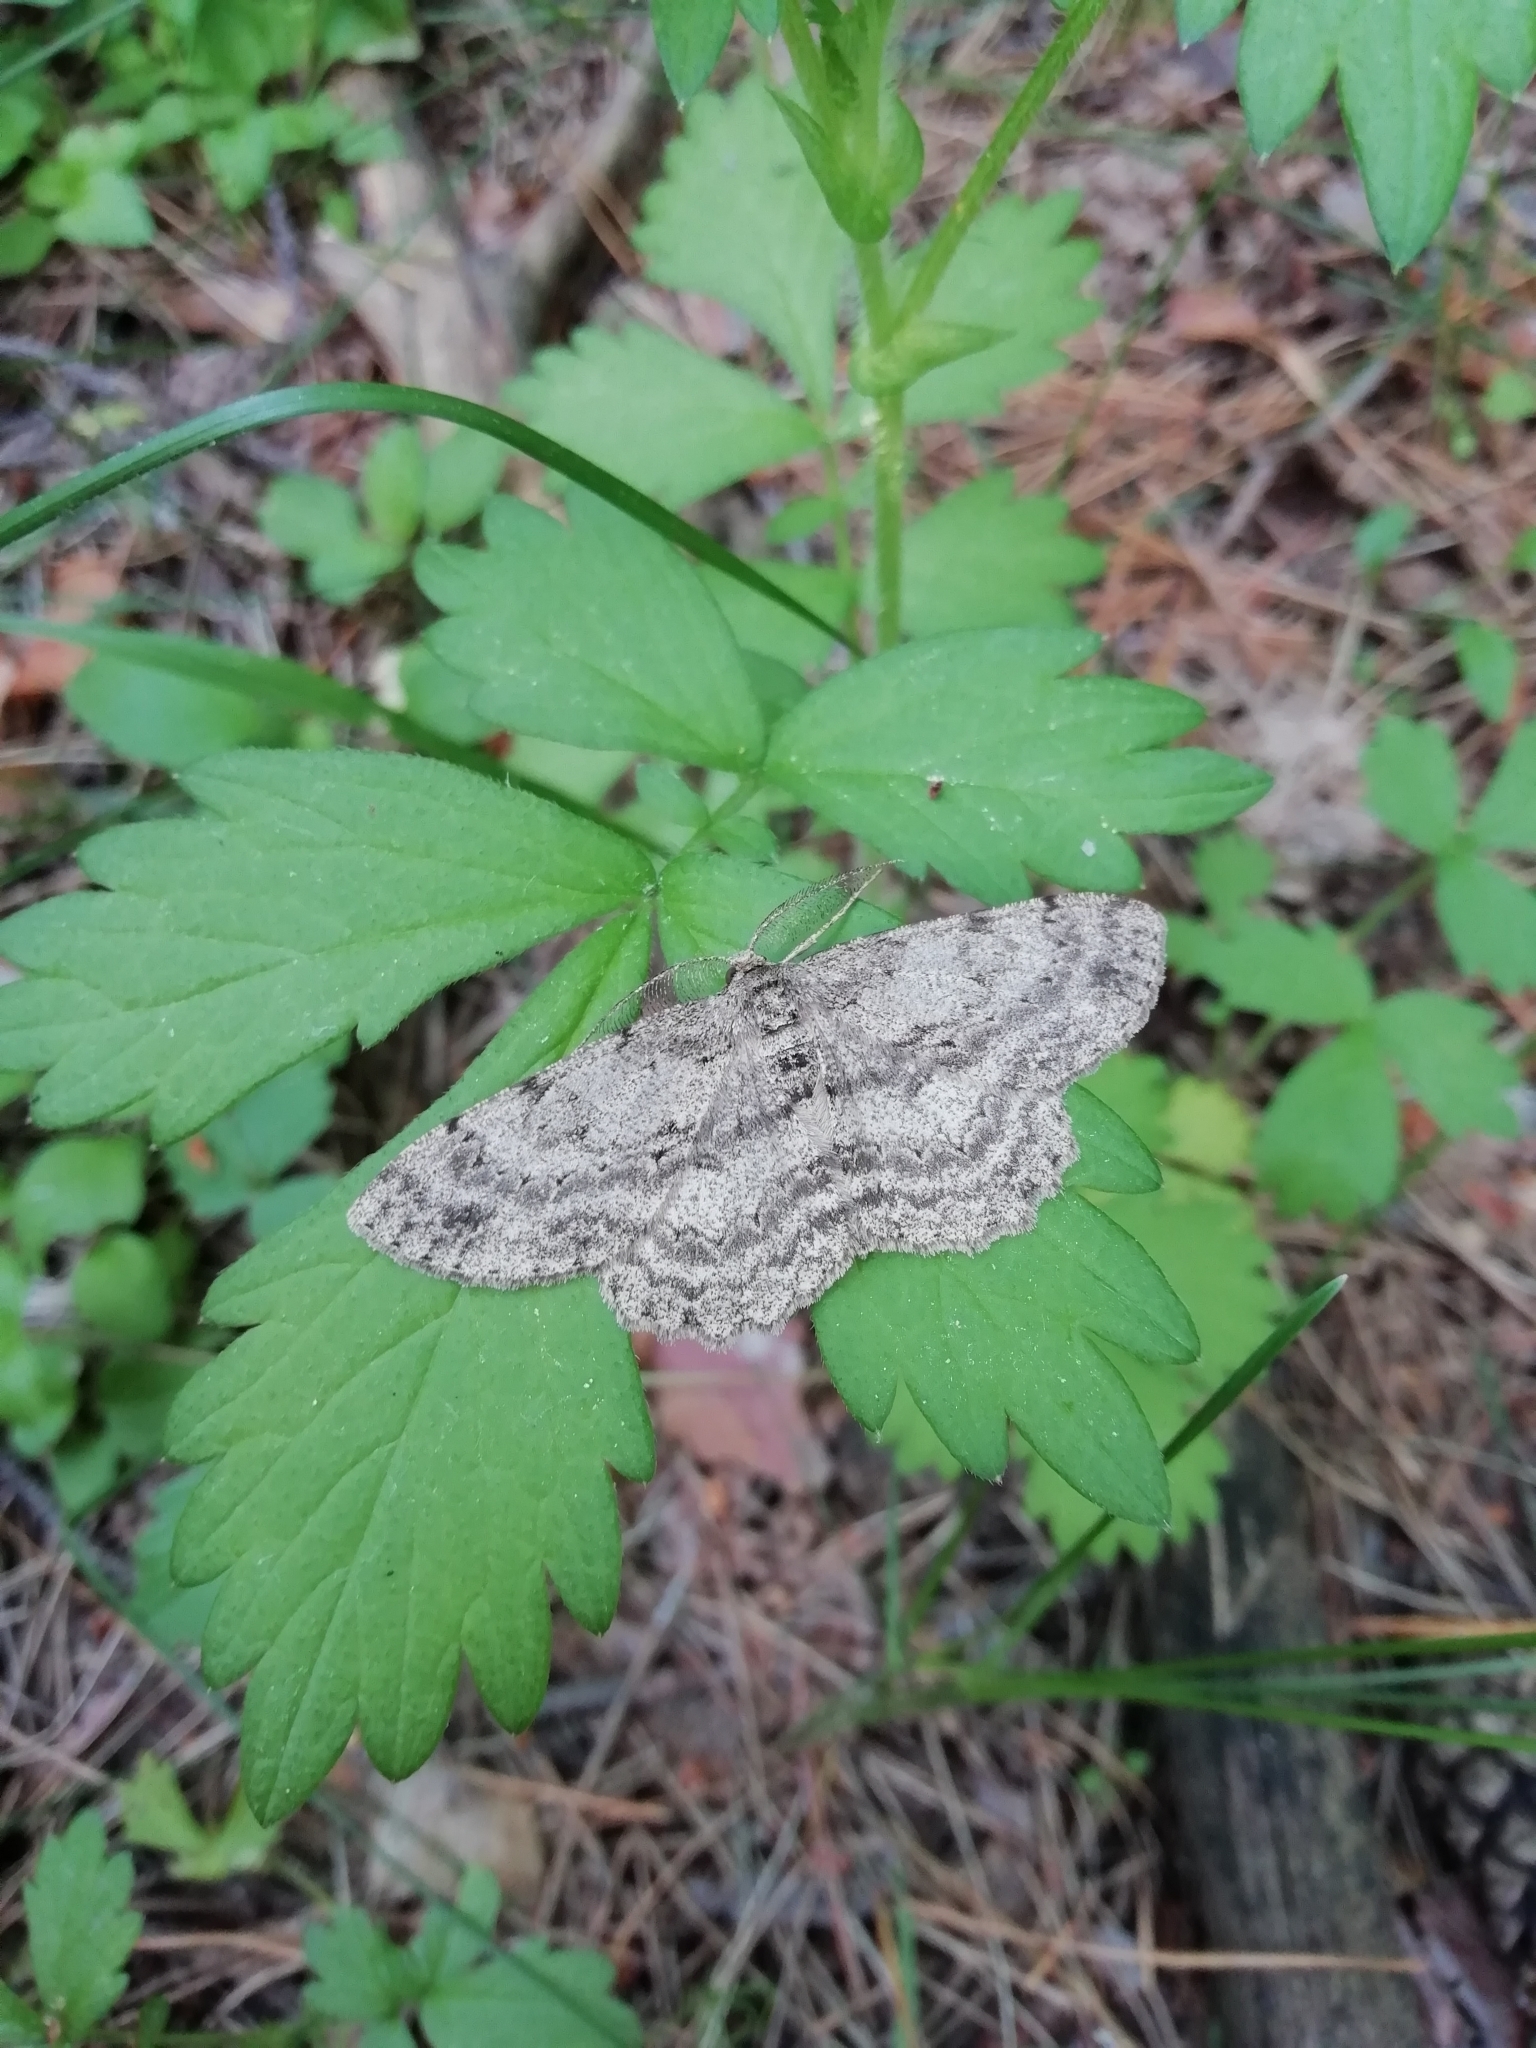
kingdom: Animalia
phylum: Arthropoda
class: Insecta
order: Lepidoptera
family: Geometridae
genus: Hypomecis
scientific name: Hypomecis roboraria
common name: Great oak beauty
